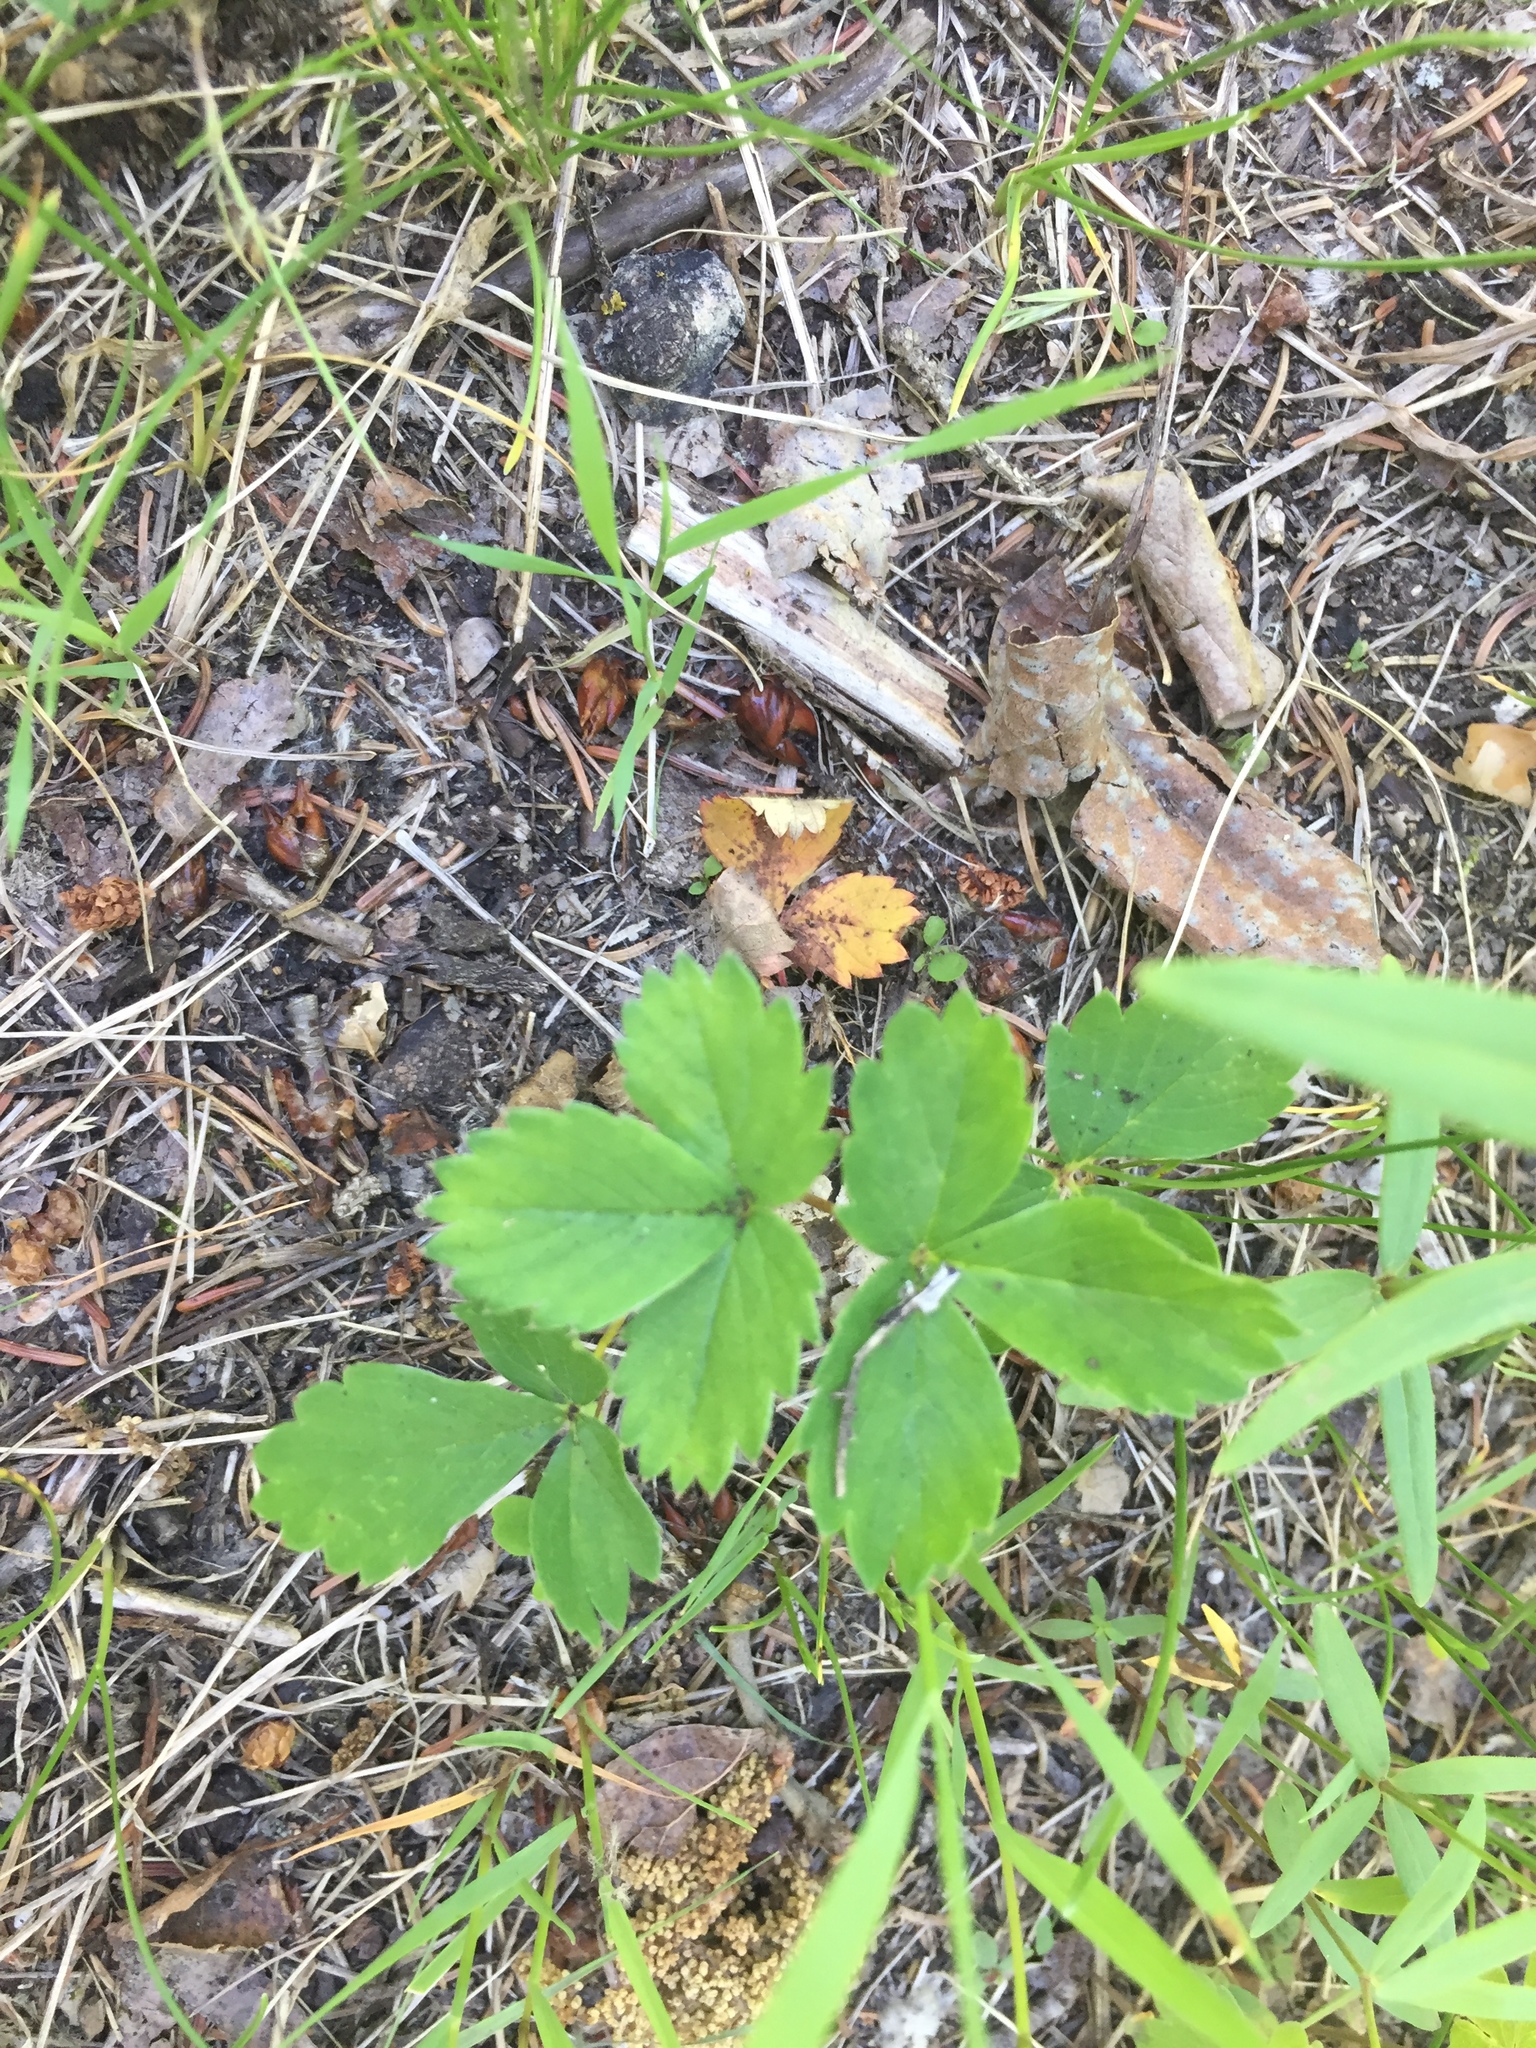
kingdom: Plantae
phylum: Tracheophyta
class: Magnoliopsida
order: Rosales
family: Rosaceae
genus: Fragaria
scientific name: Fragaria virginiana
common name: Thickleaved wild strawberry
